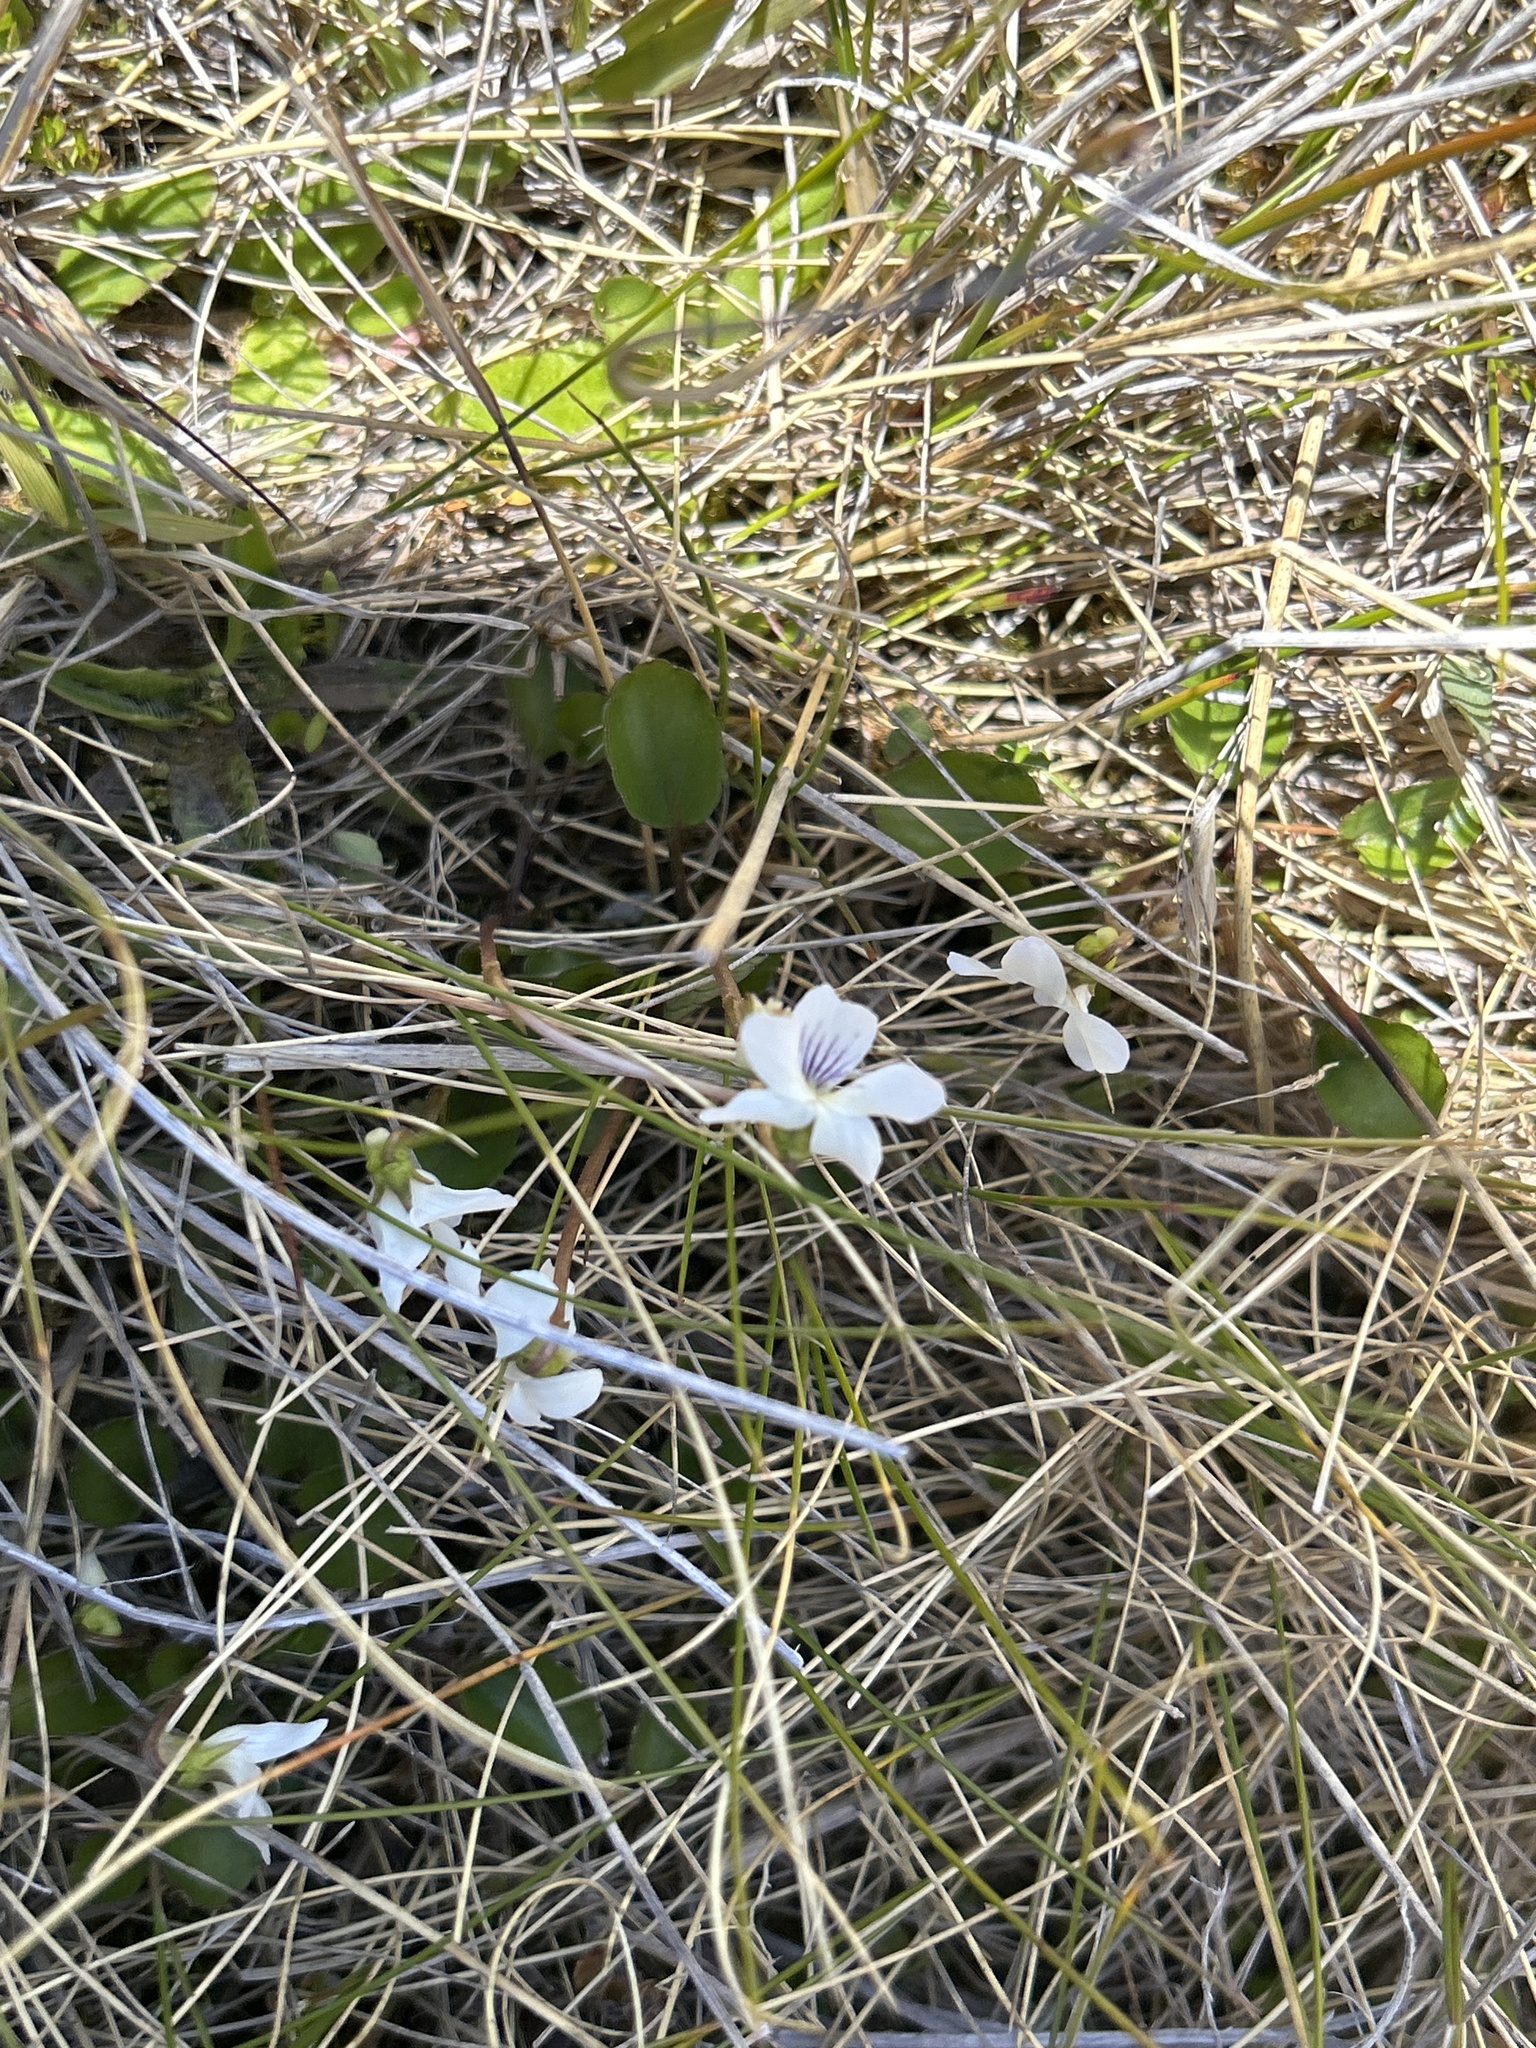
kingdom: Plantae
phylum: Tracheophyta
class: Magnoliopsida
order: Malpighiales
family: Violaceae
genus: Viola
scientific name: Viola cunninghamii
